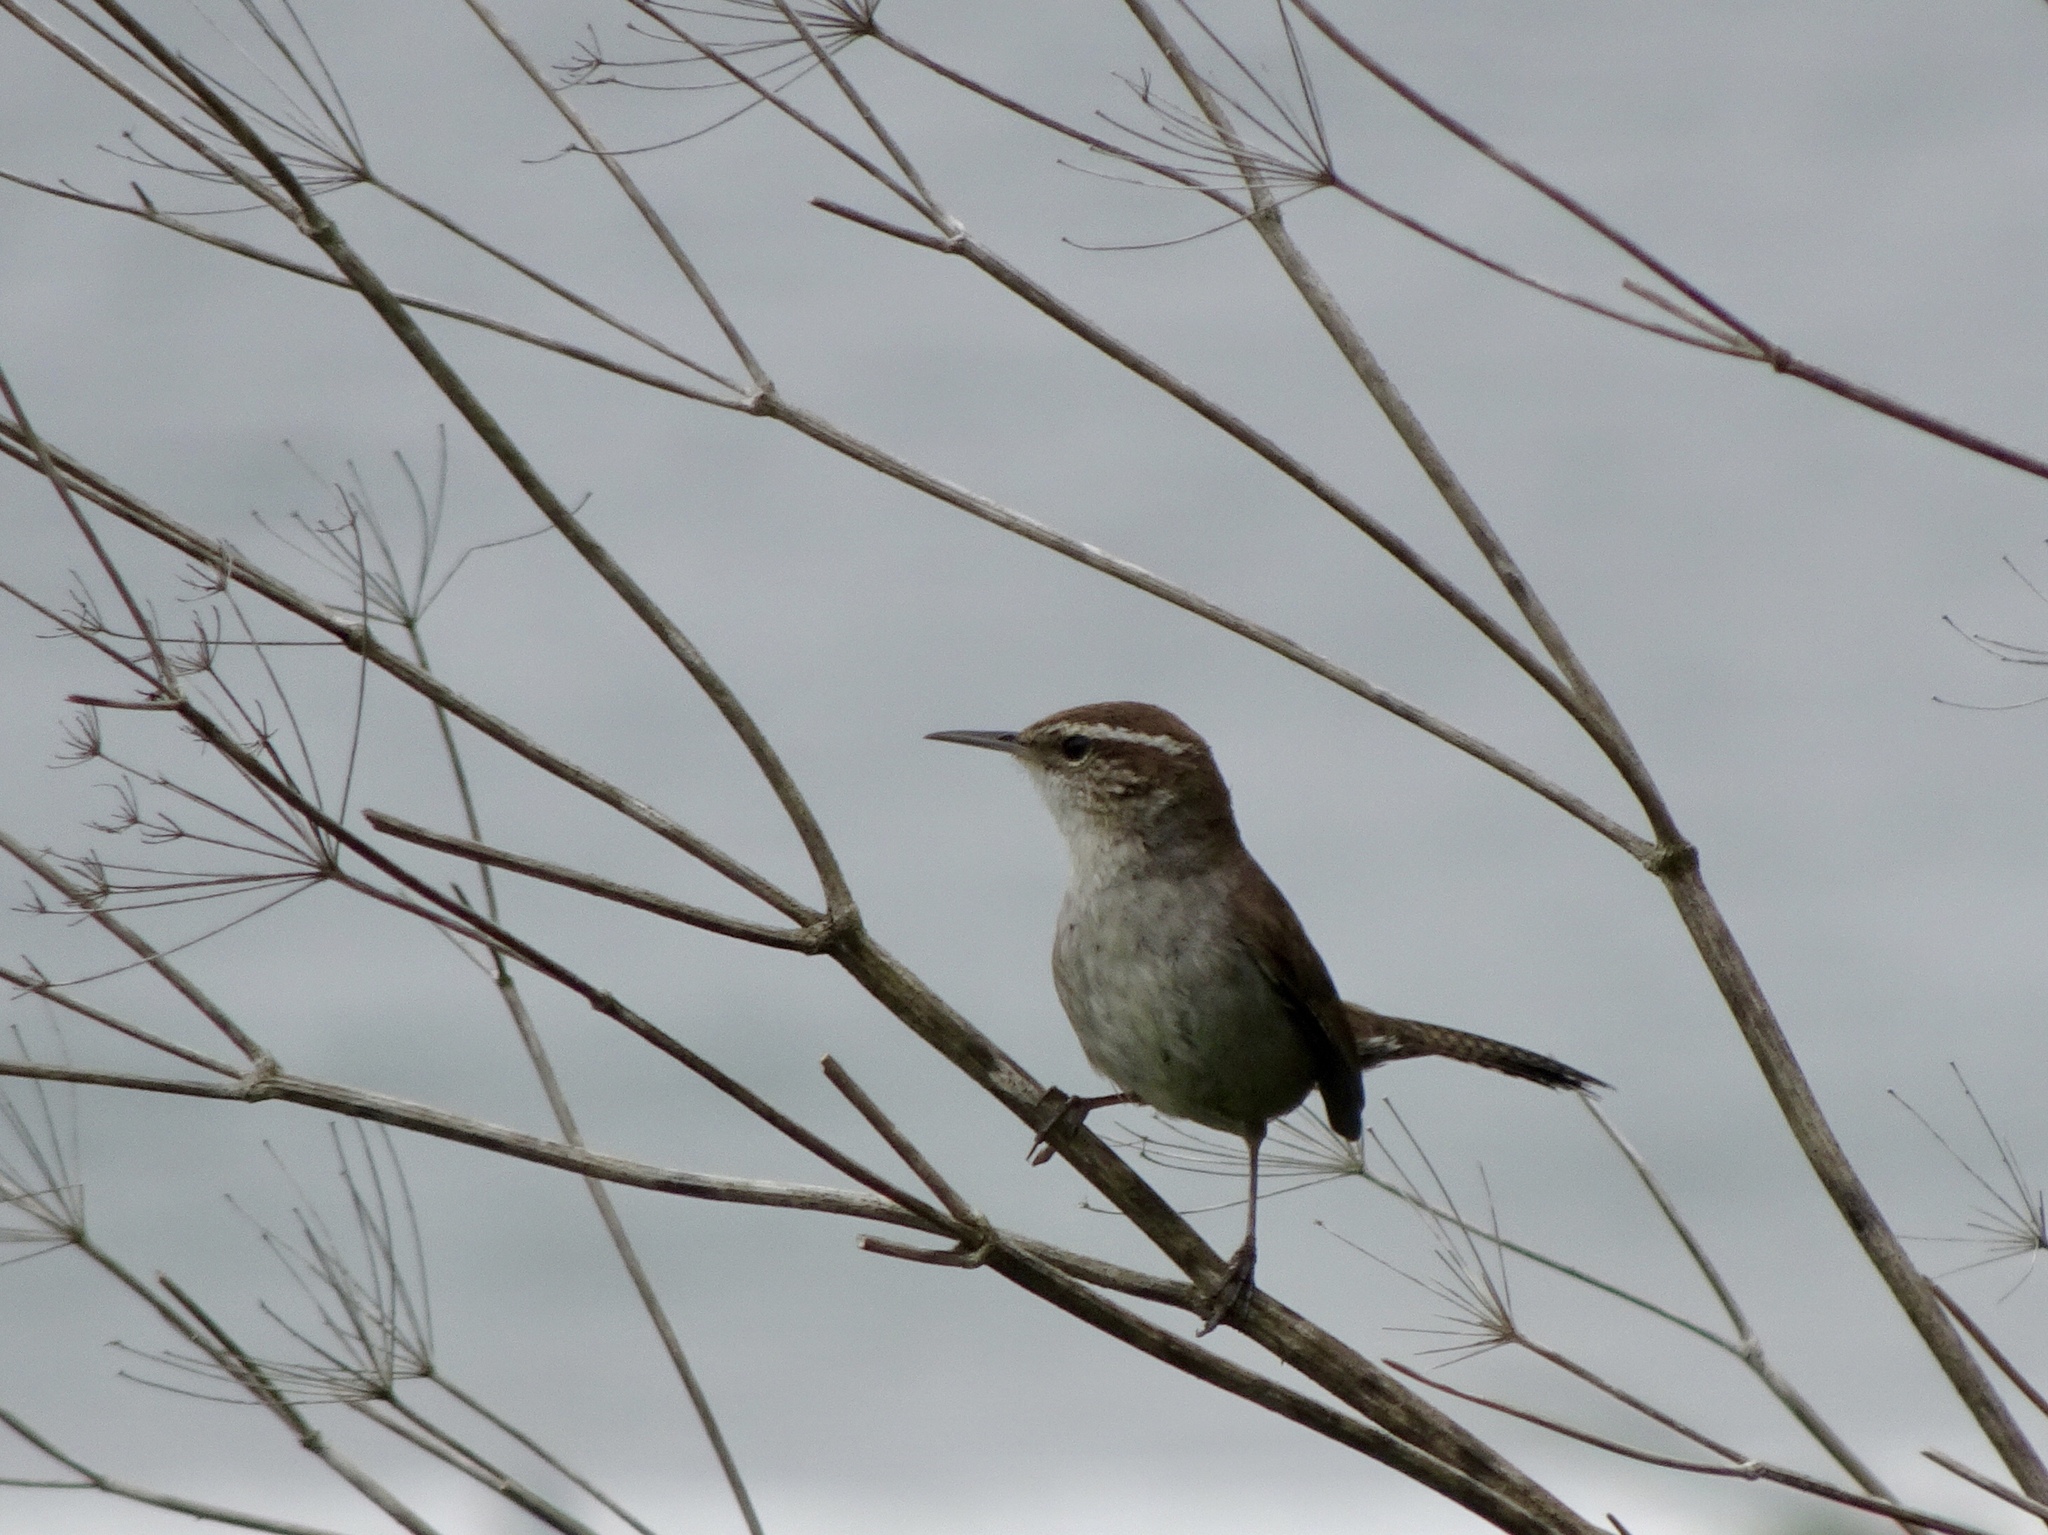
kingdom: Animalia
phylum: Chordata
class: Aves
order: Passeriformes
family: Troglodytidae
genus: Thryomanes
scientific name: Thryomanes bewickii
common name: Bewick's wren
